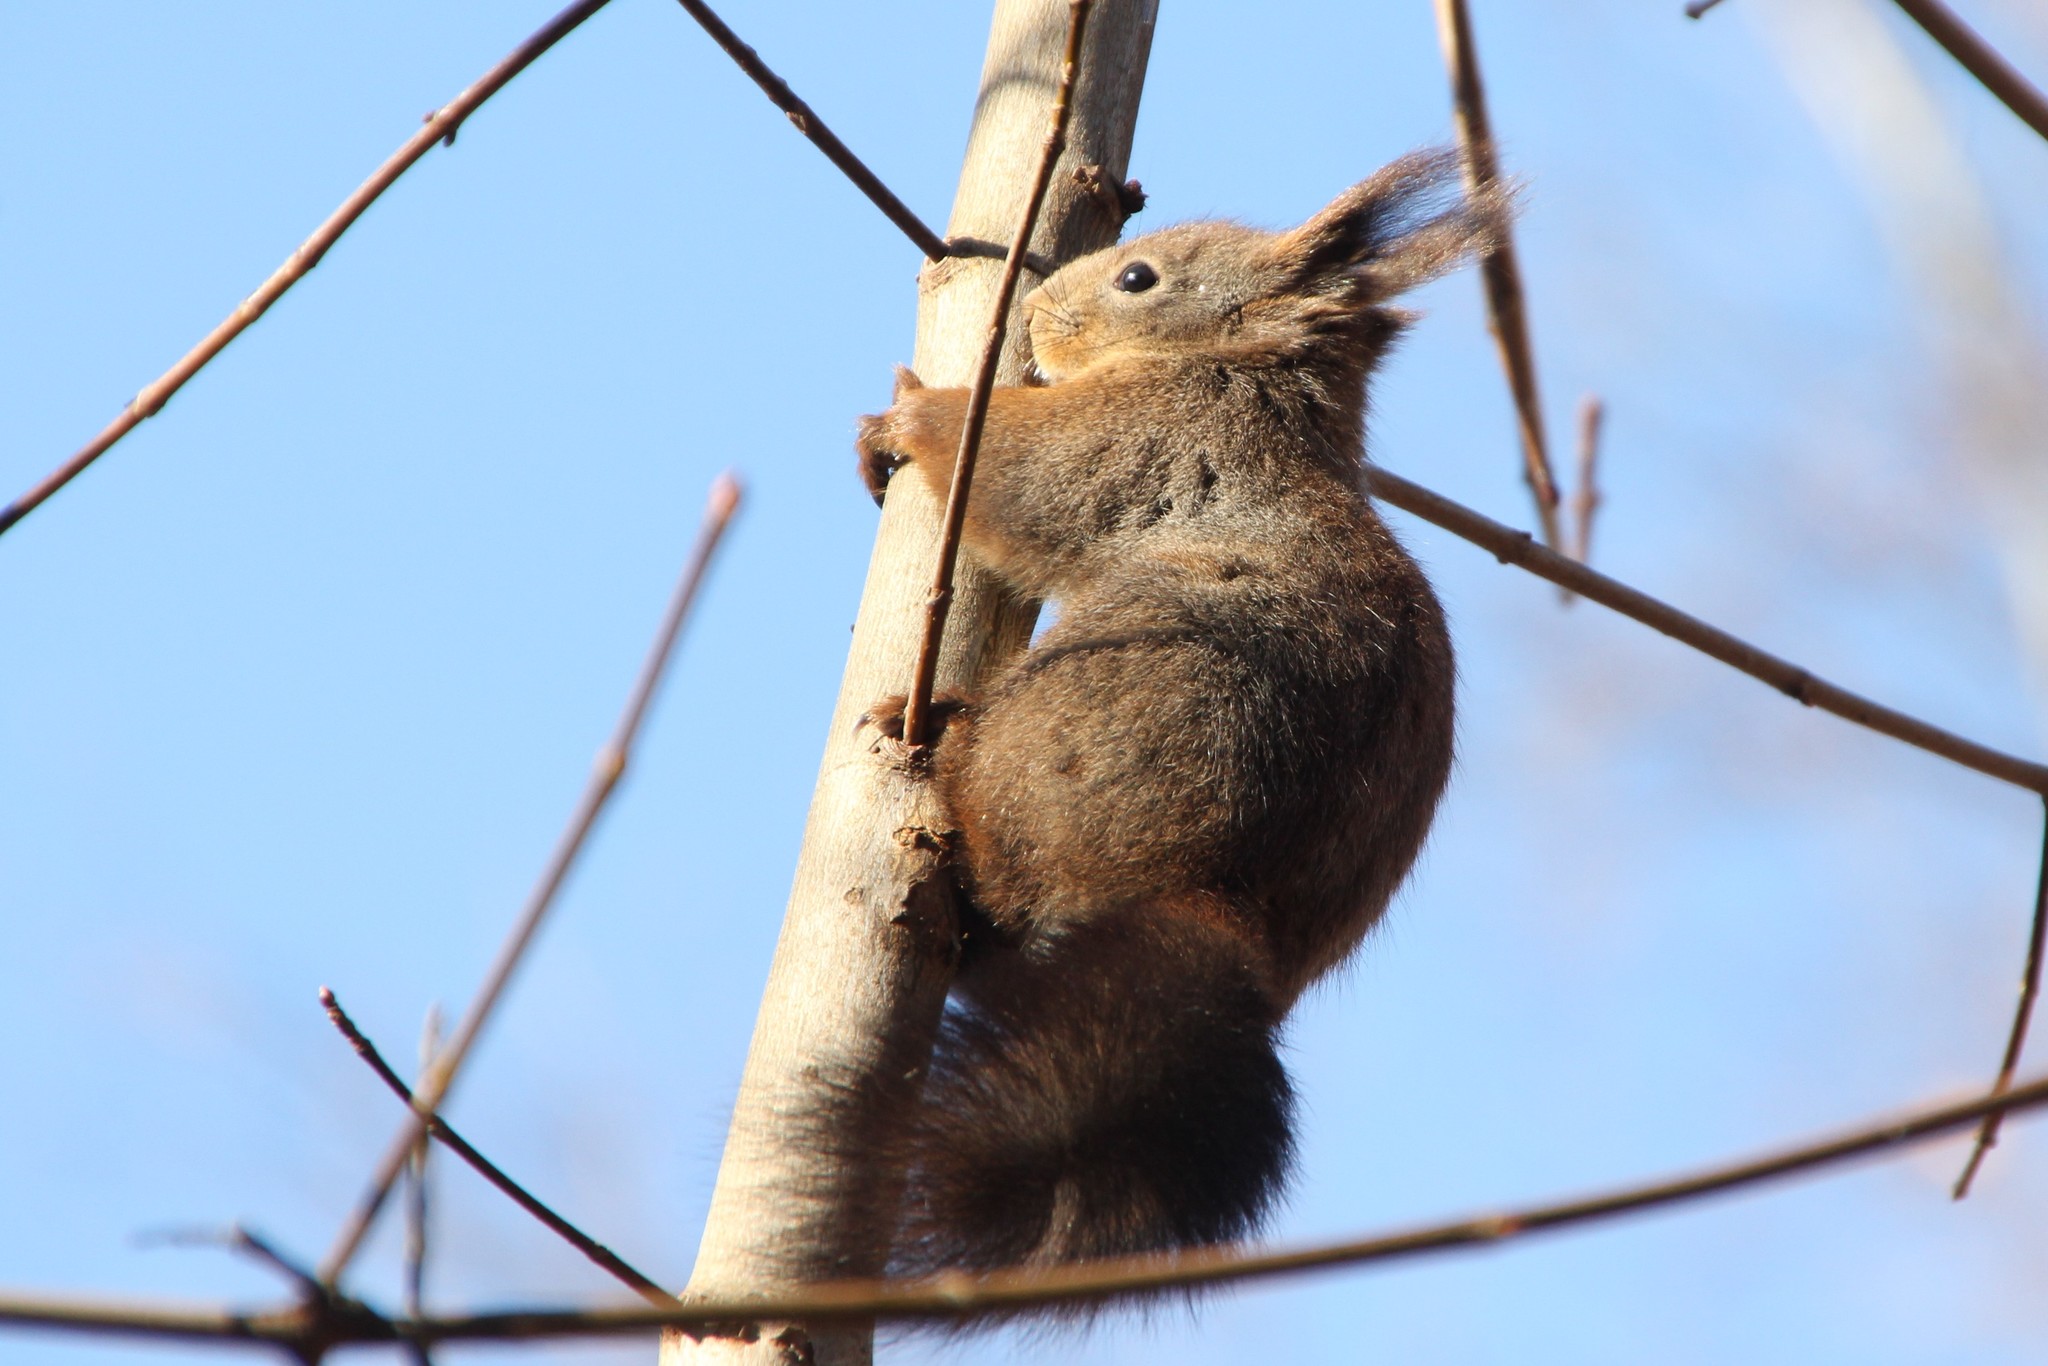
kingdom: Animalia
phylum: Chordata
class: Mammalia
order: Rodentia
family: Sciuridae
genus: Sciurus
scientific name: Sciurus vulgaris
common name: Eurasian red squirrel
